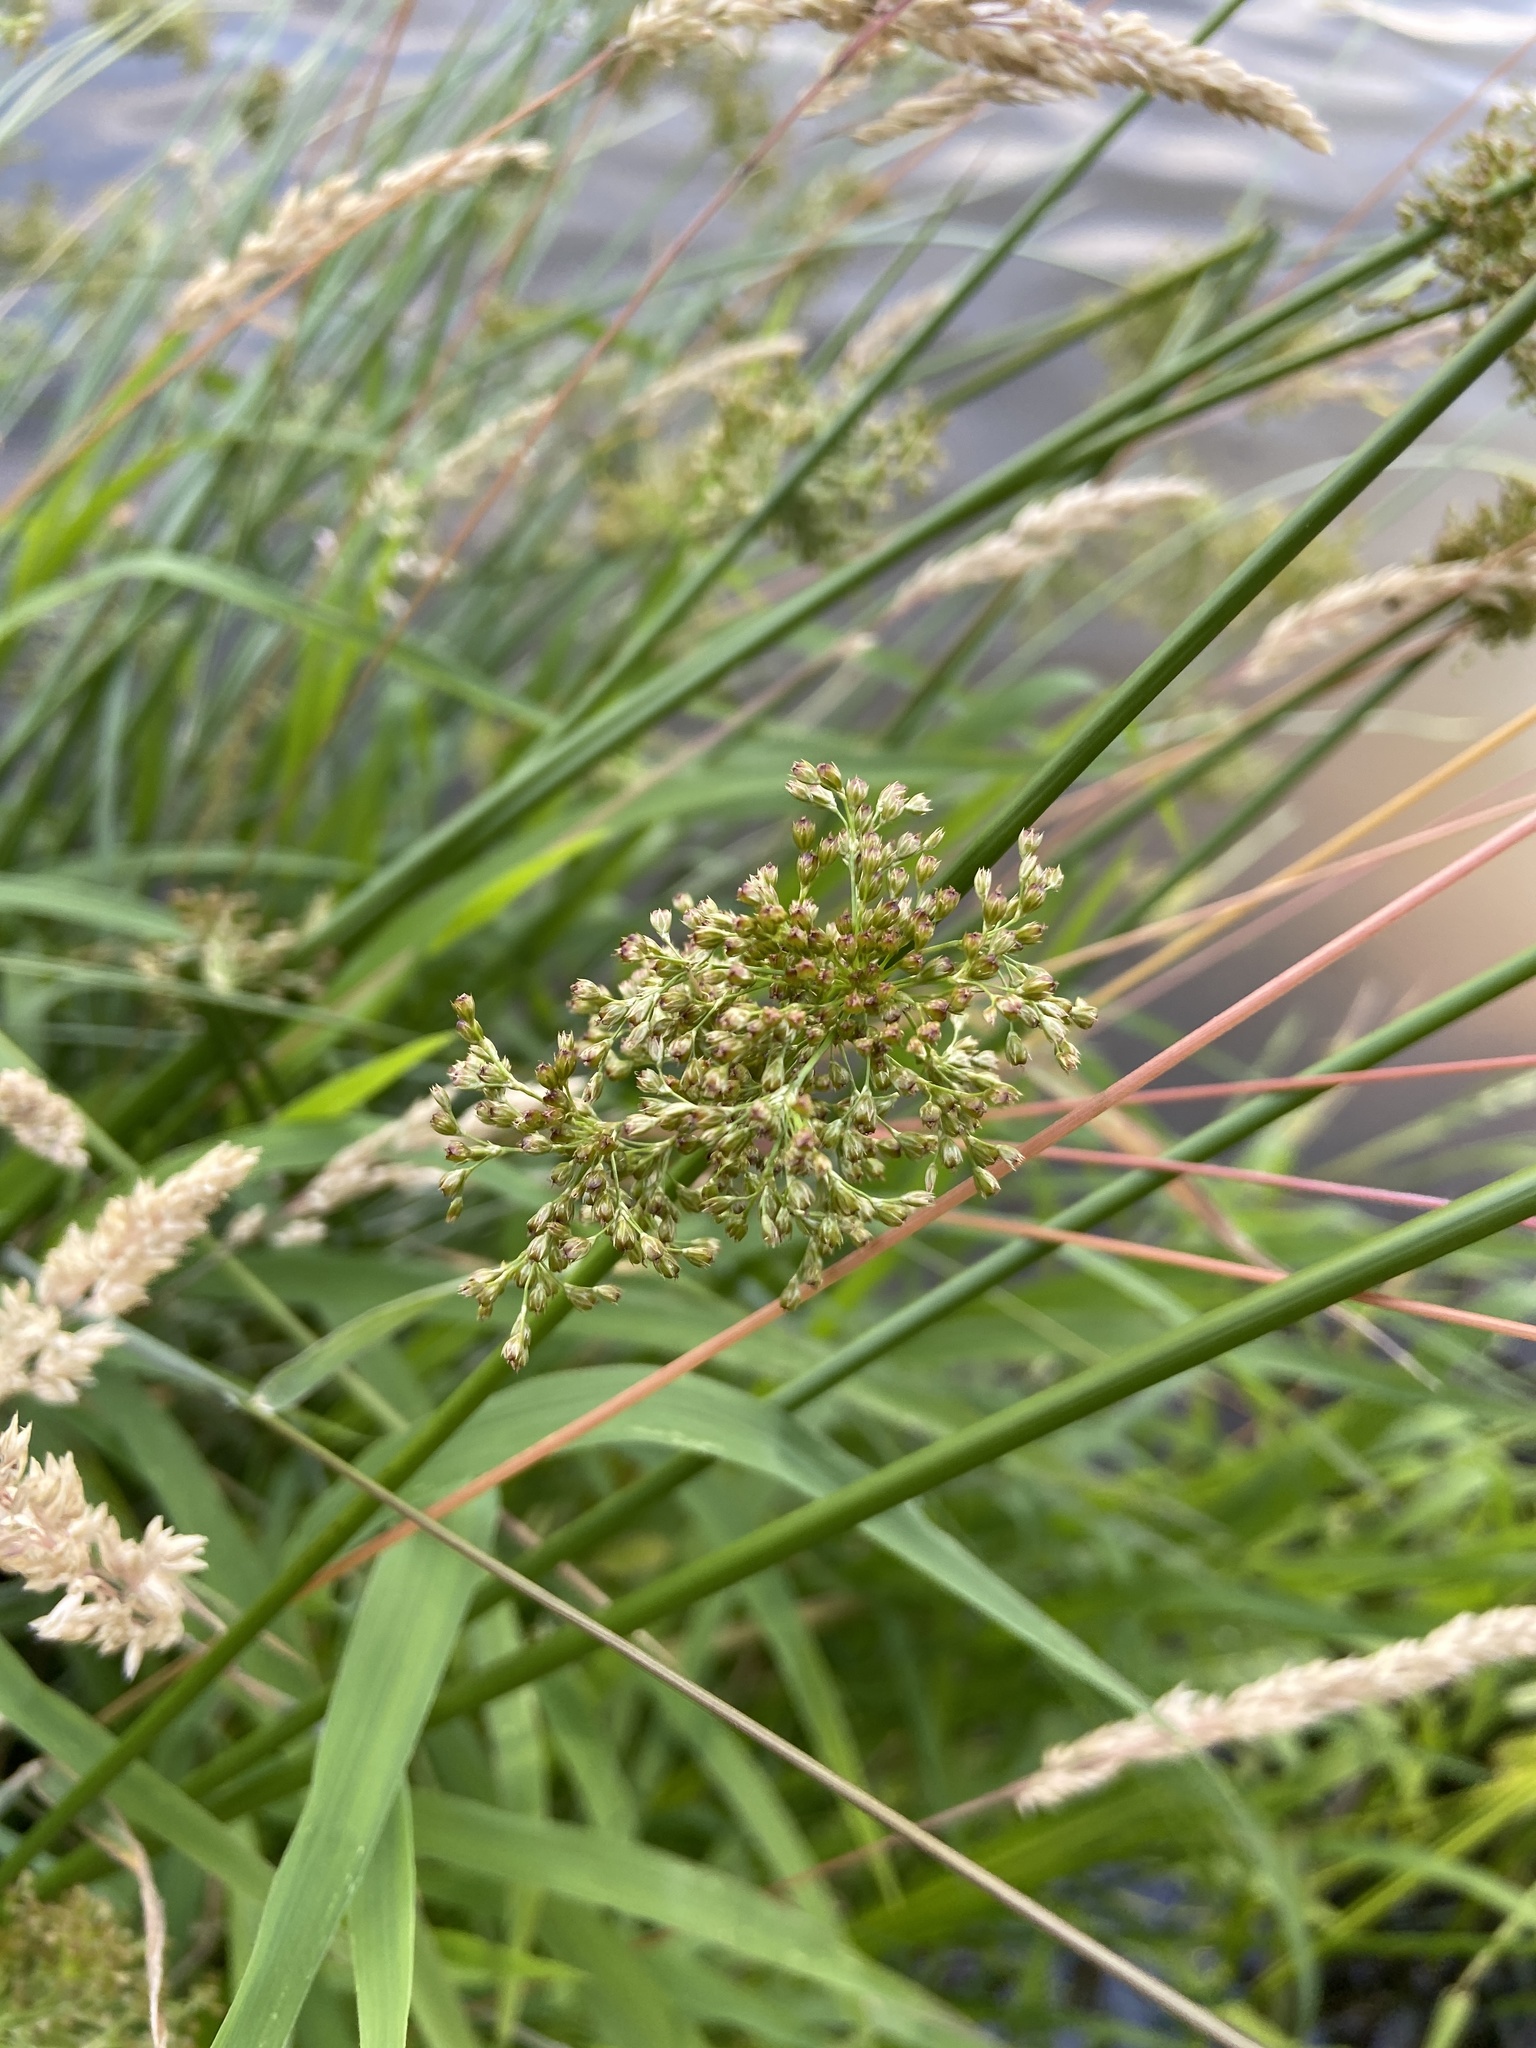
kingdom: Plantae
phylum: Tracheophyta
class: Liliopsida
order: Poales
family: Juncaceae
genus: Juncus
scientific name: Juncus effusus
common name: Soft rush
